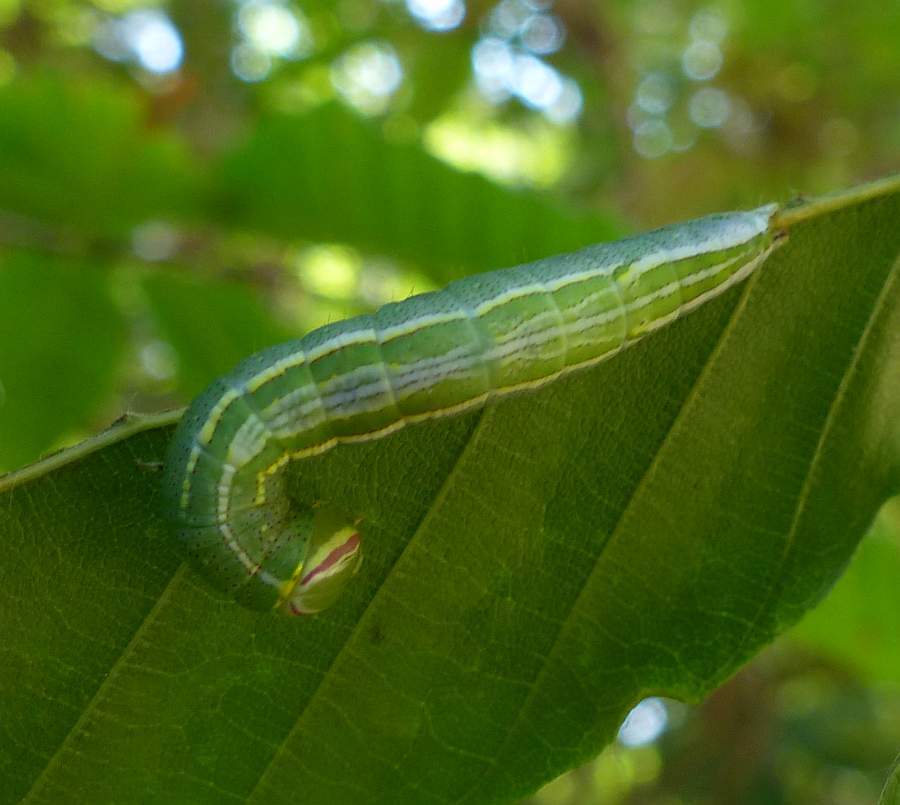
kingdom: Animalia
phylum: Arthropoda
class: Insecta
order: Lepidoptera
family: Notodontidae
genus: Disphragis
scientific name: Disphragis Cecrita guttivitta
